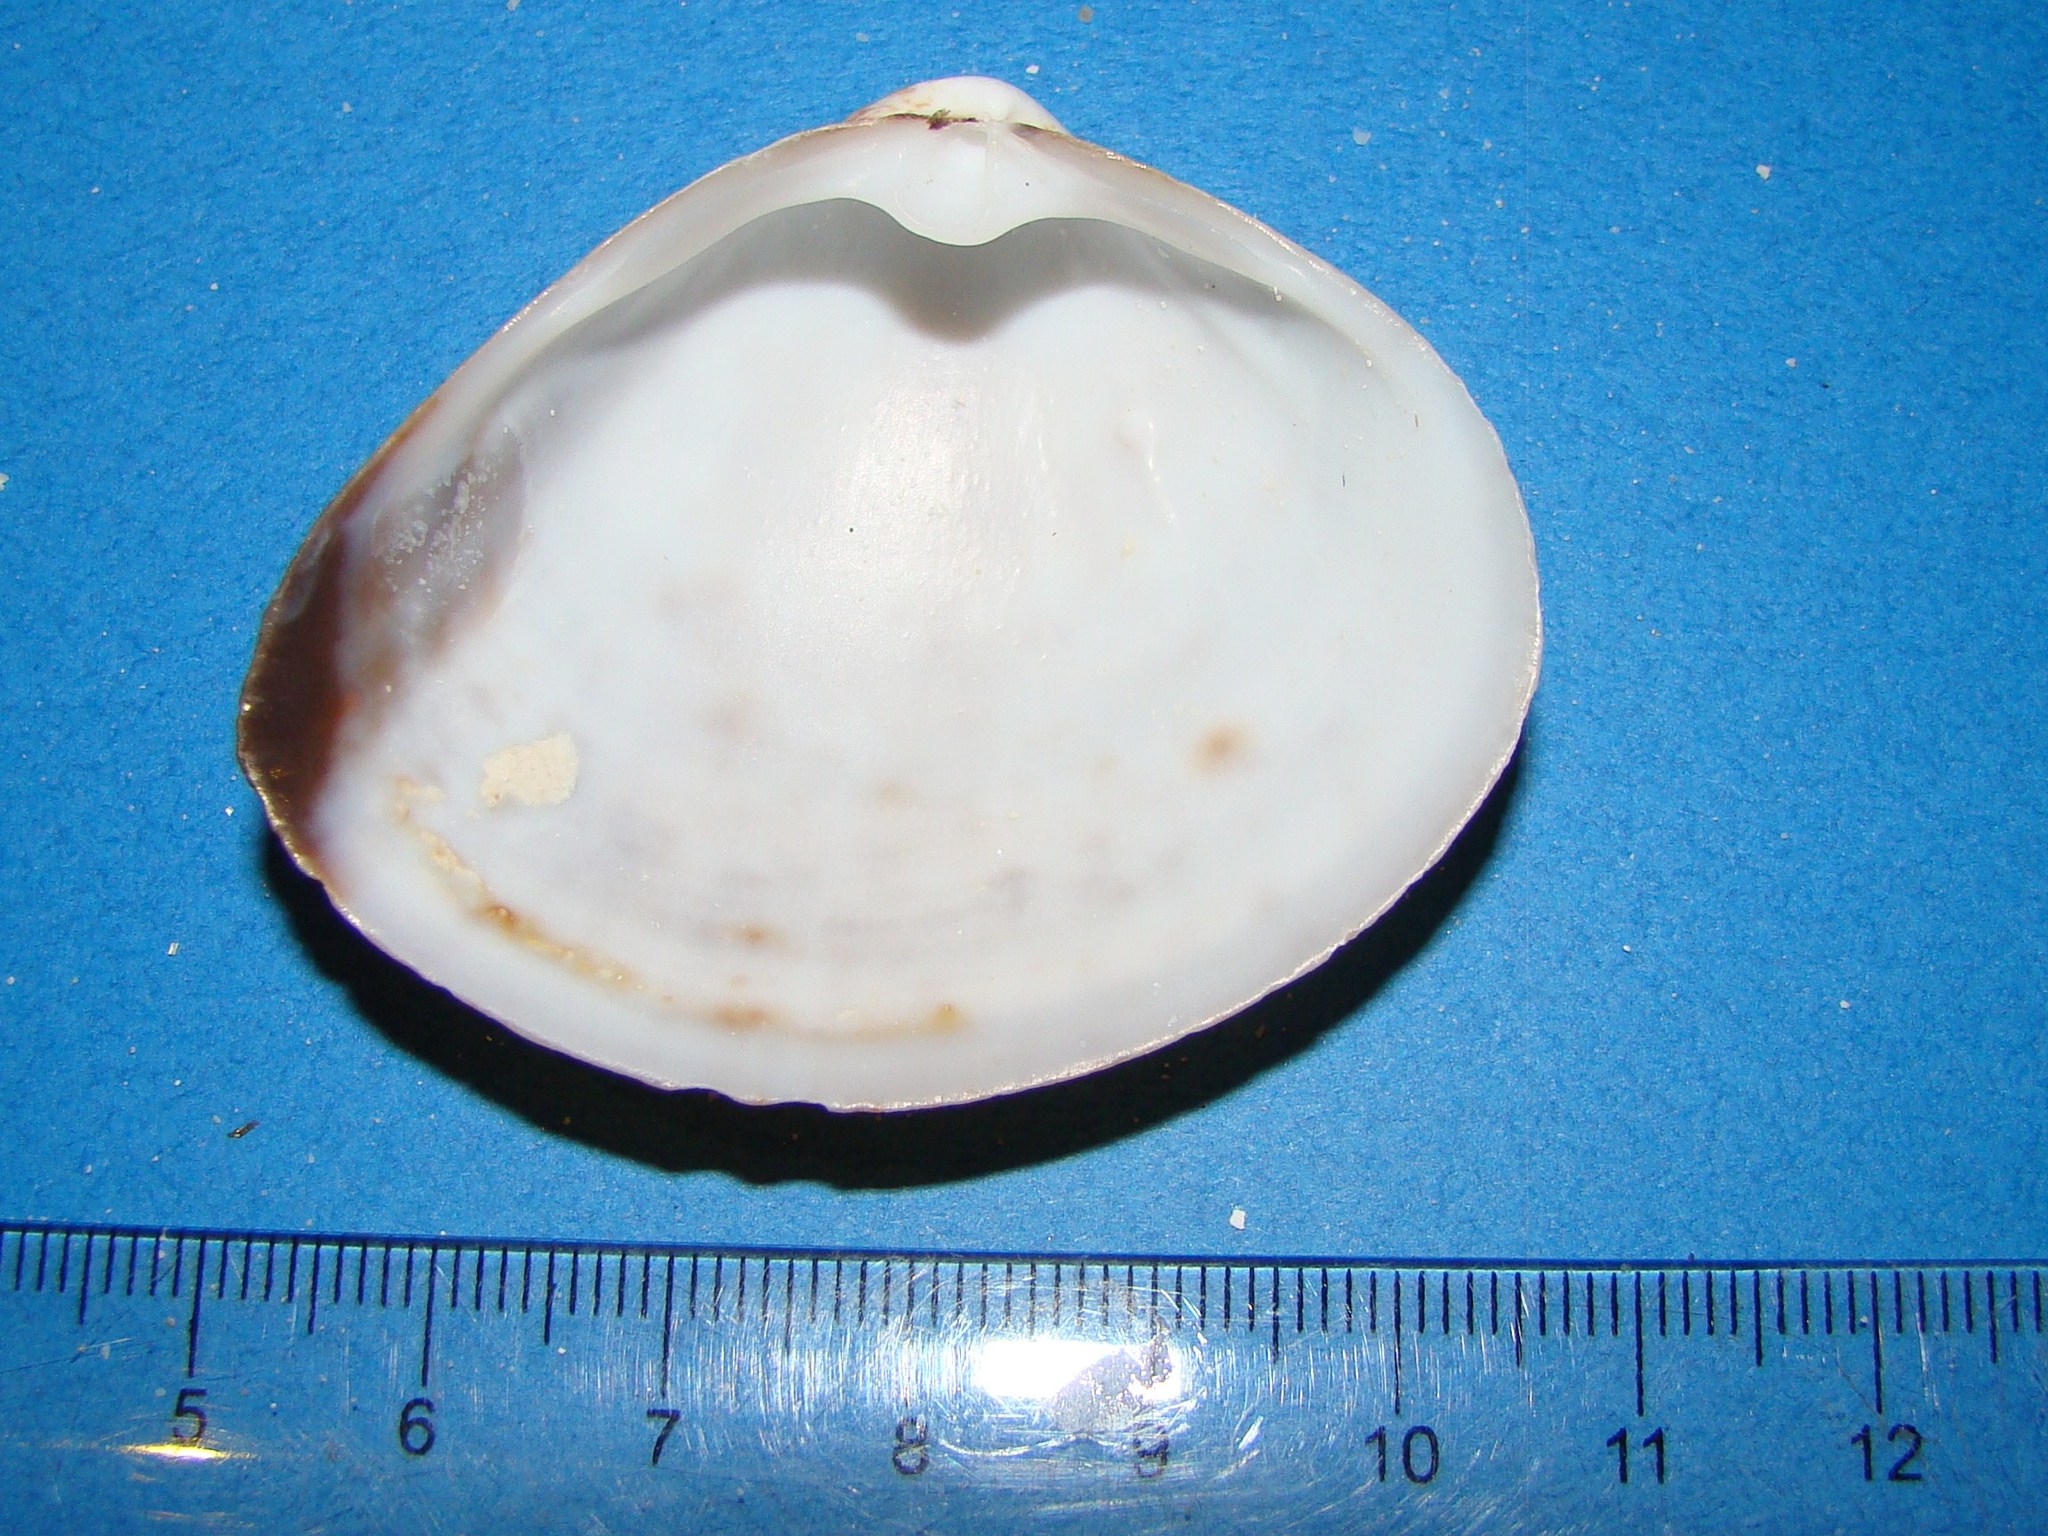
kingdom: Animalia
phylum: Mollusca
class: Bivalvia
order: Venerida
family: Mactridae
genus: Mactra
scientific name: Mactra maculata
